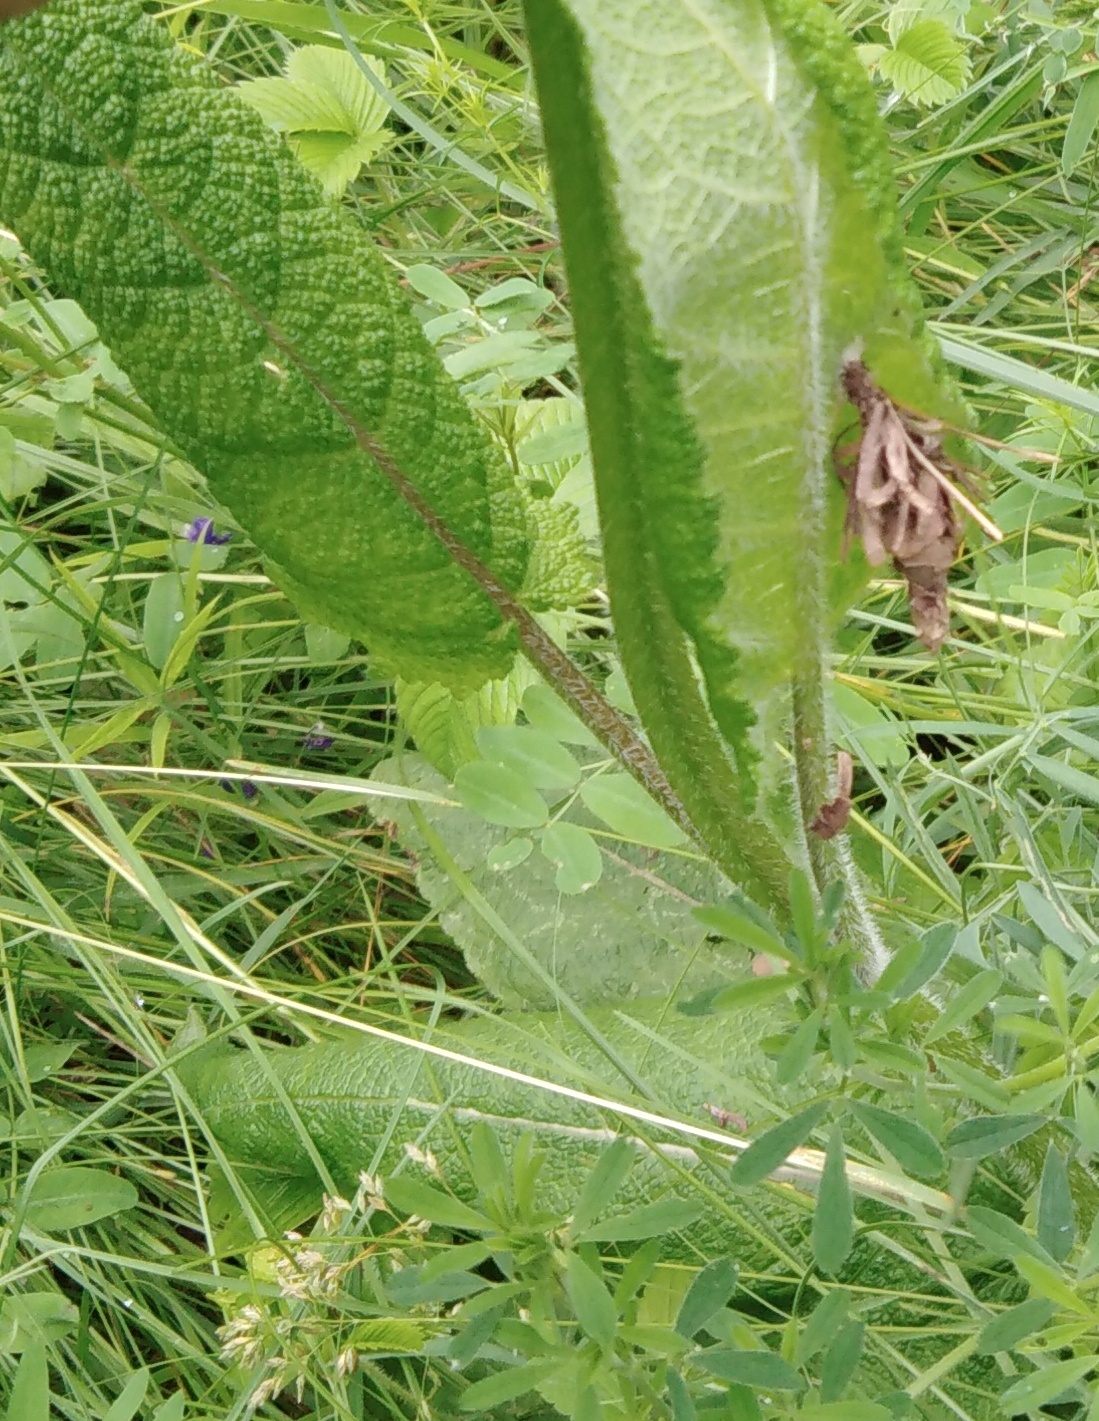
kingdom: Animalia
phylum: Arthropoda
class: Insecta
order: Lepidoptera
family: Psychidae
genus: Canephora
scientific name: Canephora hirsuta
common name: Hairy sweep
